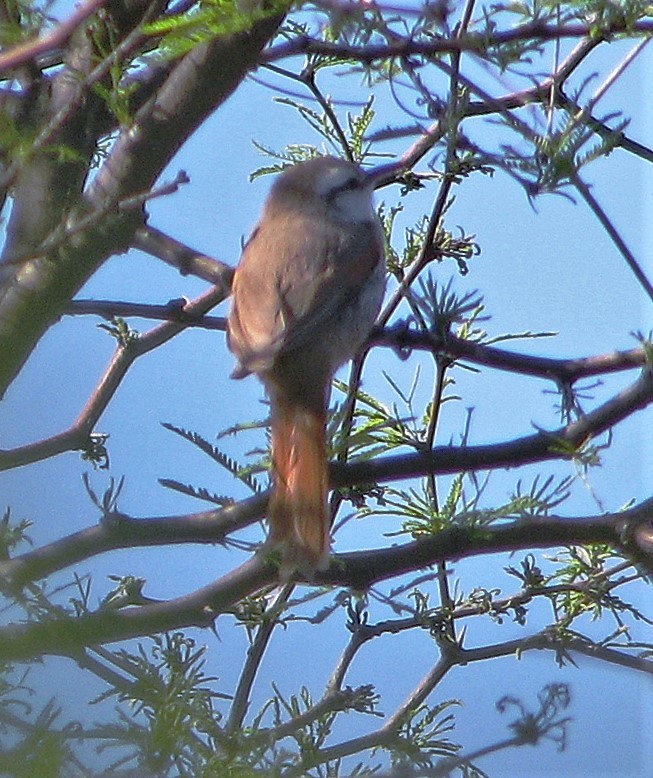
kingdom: Animalia
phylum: Chordata
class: Aves
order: Passeriformes
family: Furnariidae
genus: Cranioleuca
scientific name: Cranioleuca pyrrhophia
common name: Stripe-crowned spinetail
